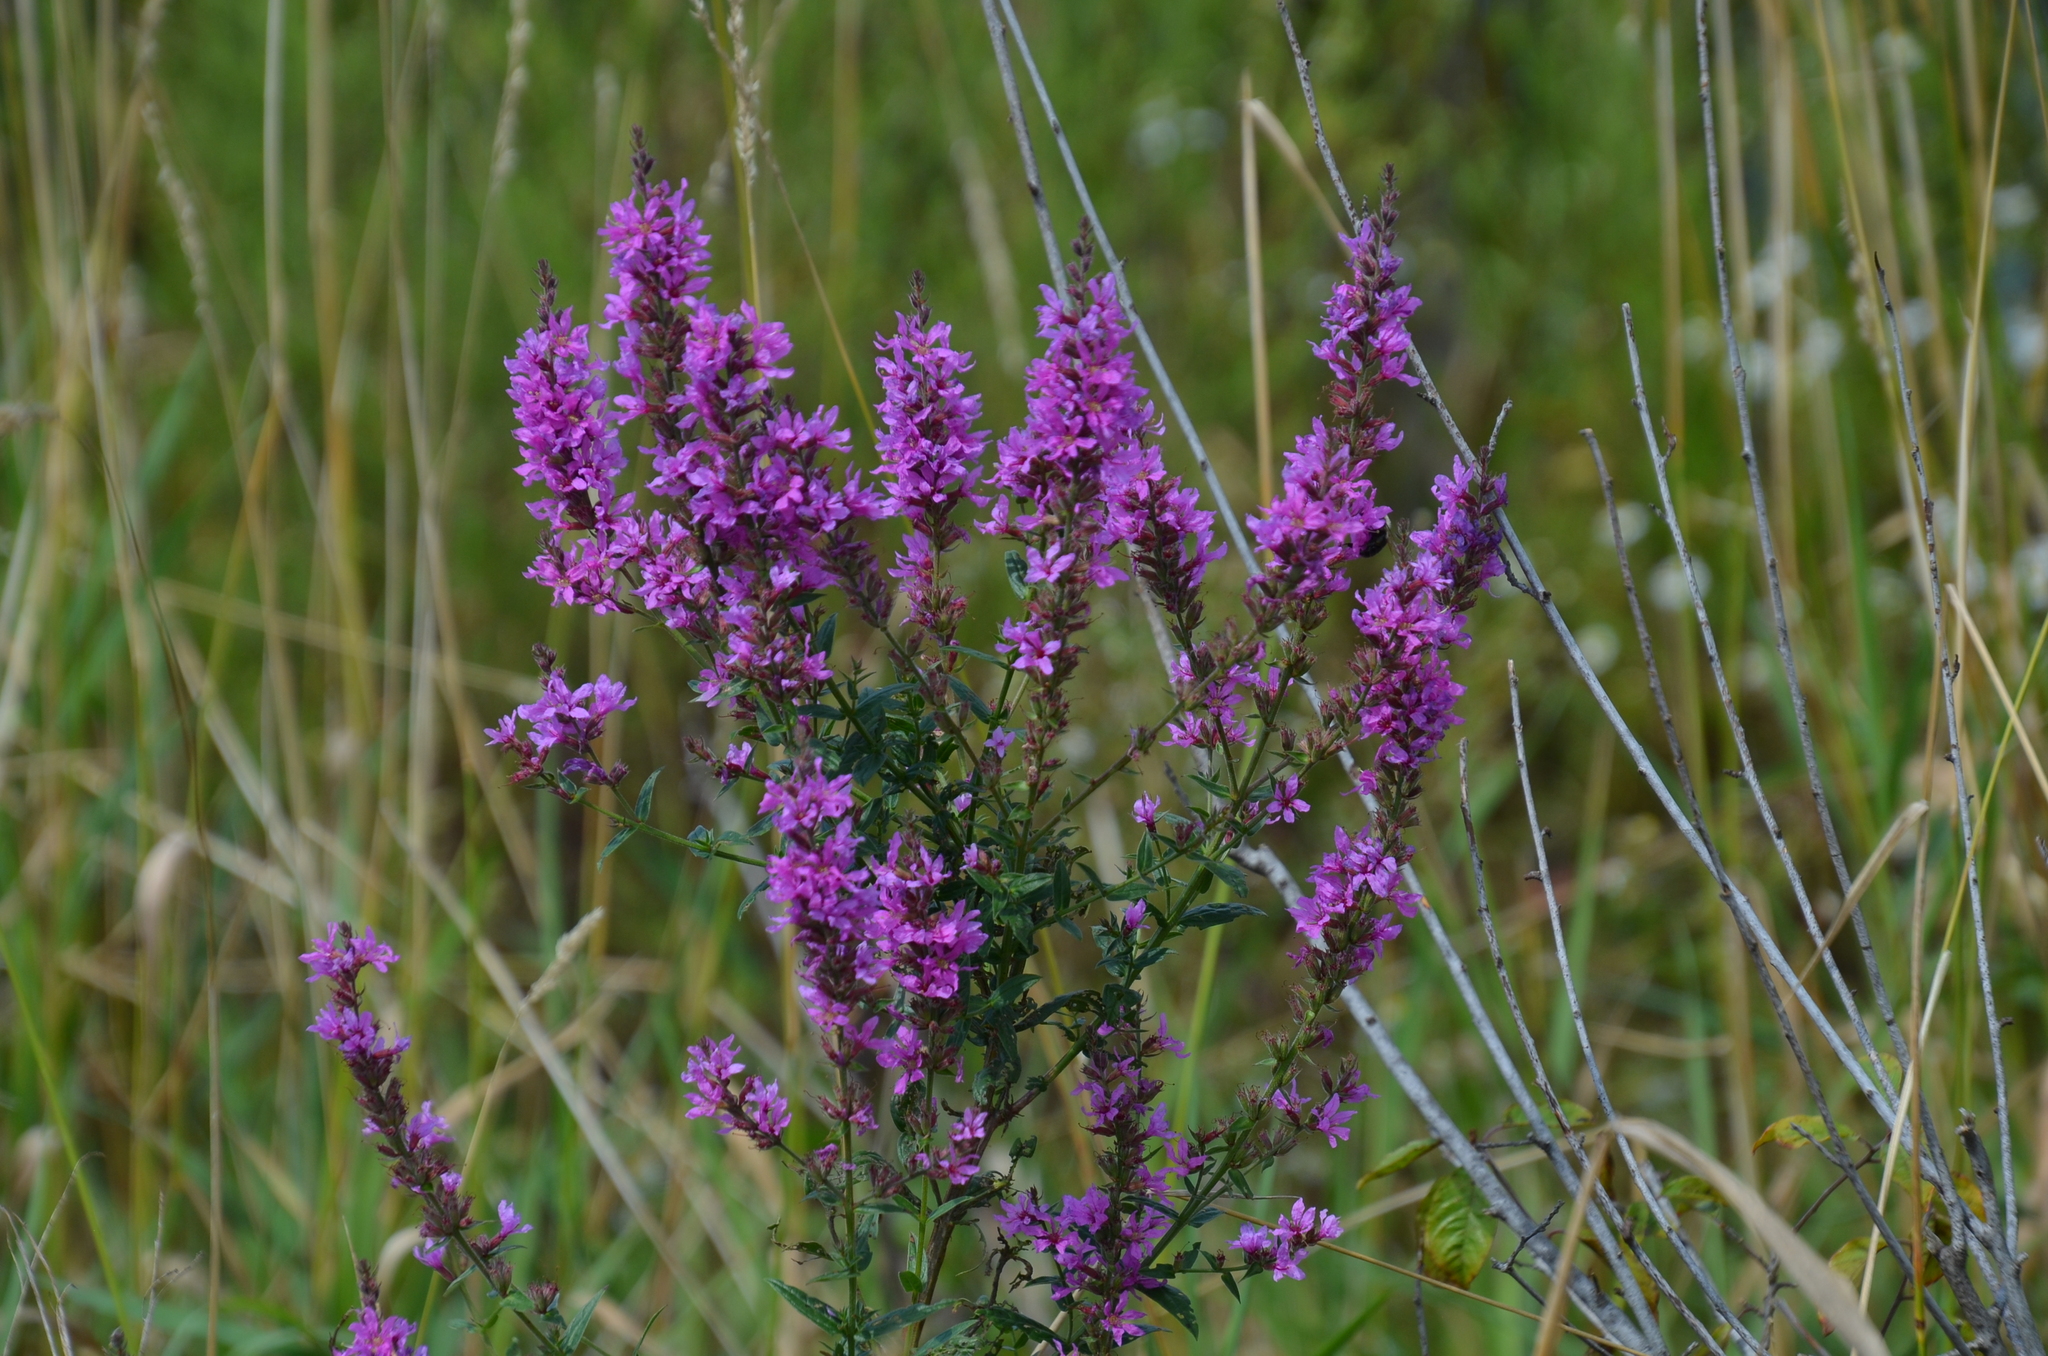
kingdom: Plantae
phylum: Tracheophyta
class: Magnoliopsida
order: Myrtales
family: Lythraceae
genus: Lythrum
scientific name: Lythrum salicaria
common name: Purple loosestrife
